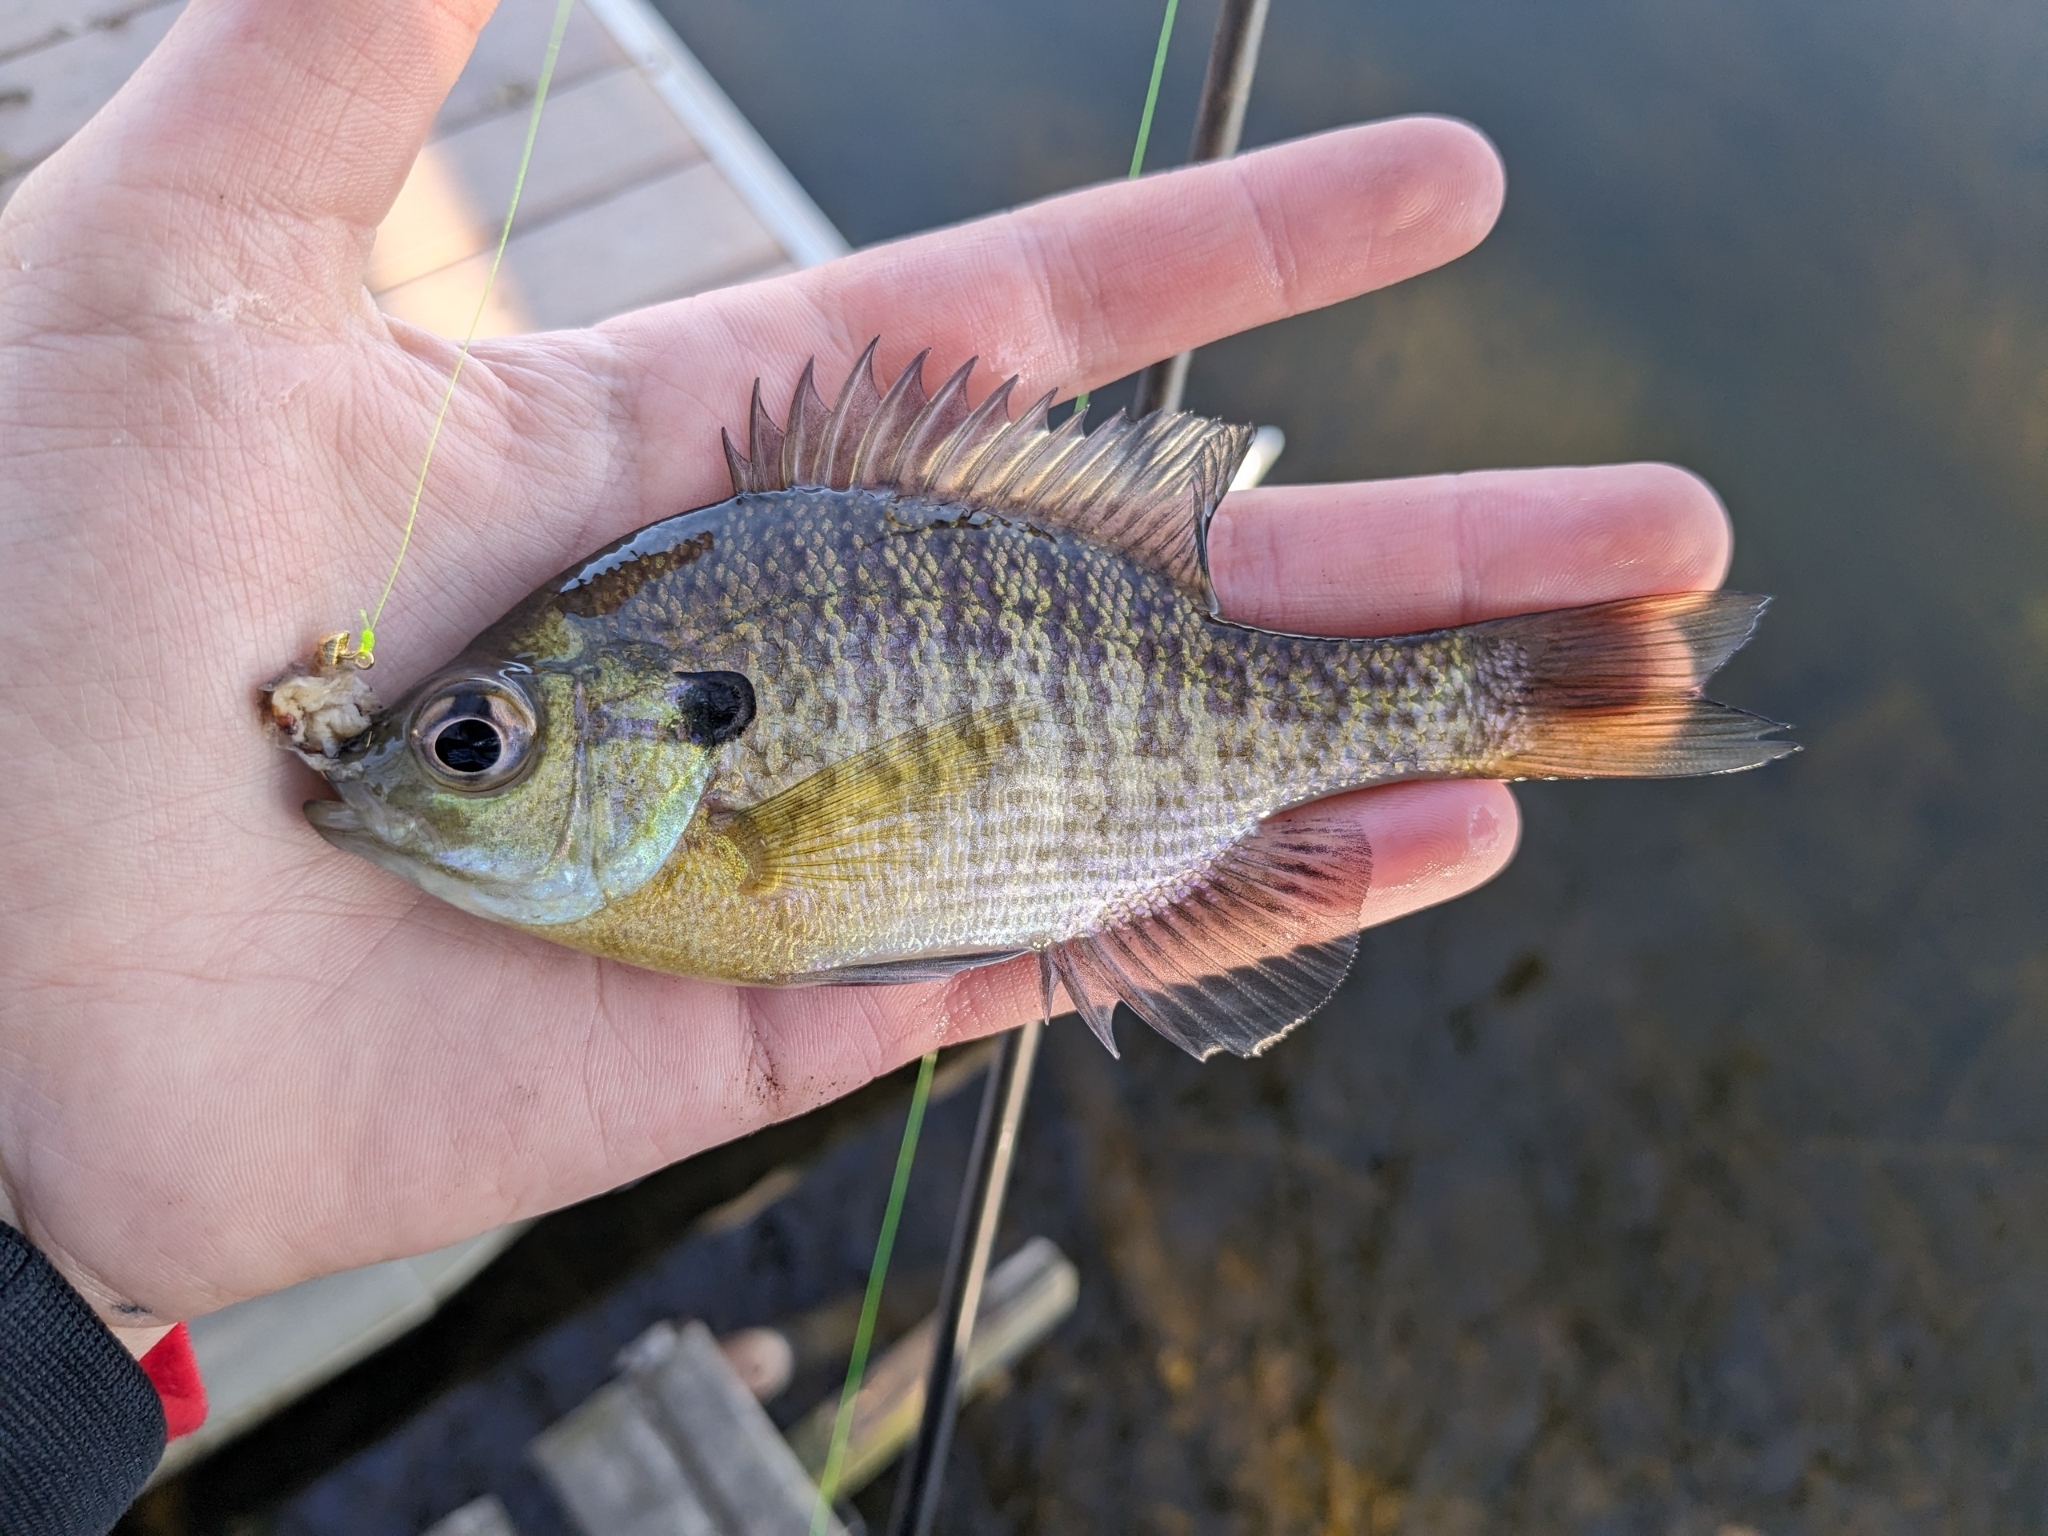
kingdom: Animalia
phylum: Chordata
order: Perciformes
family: Centrarchidae
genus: Lepomis
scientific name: Lepomis macrochirus
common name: Bluegill
